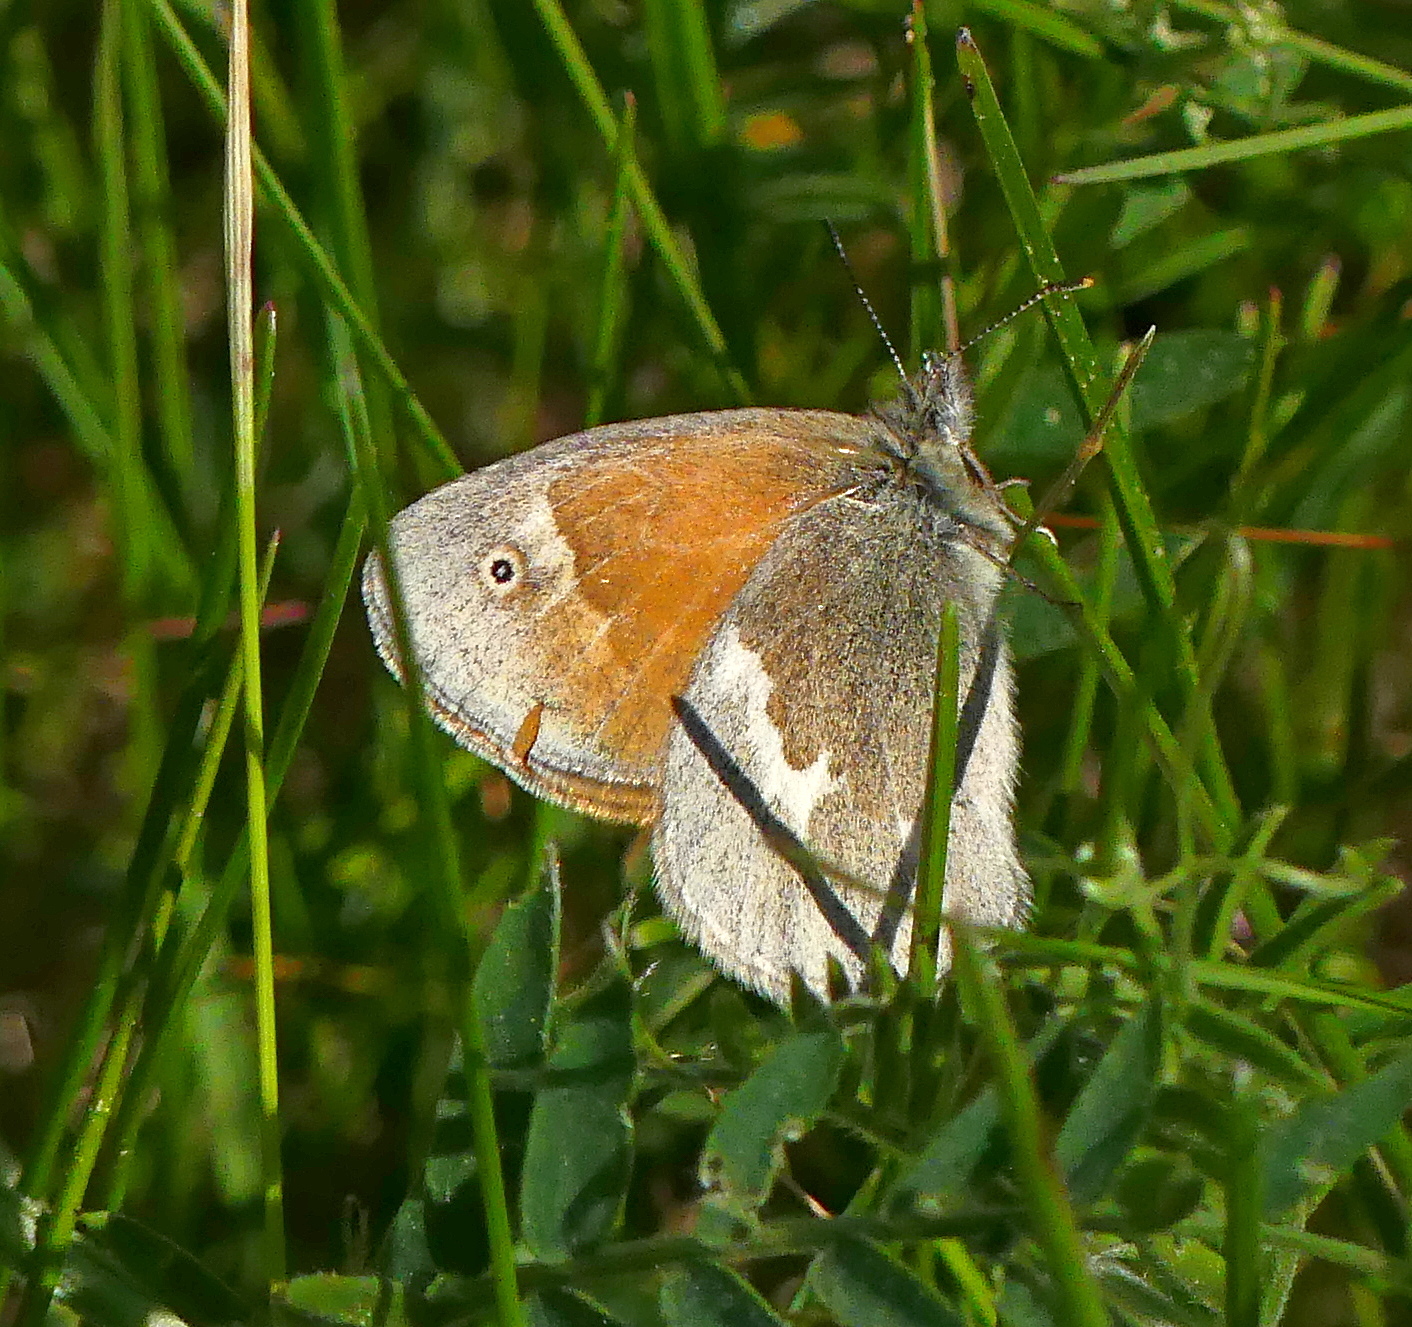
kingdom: Animalia
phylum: Arthropoda
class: Insecta
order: Lepidoptera
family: Nymphalidae
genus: Coenonympha
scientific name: Coenonympha california
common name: Common ringlet
